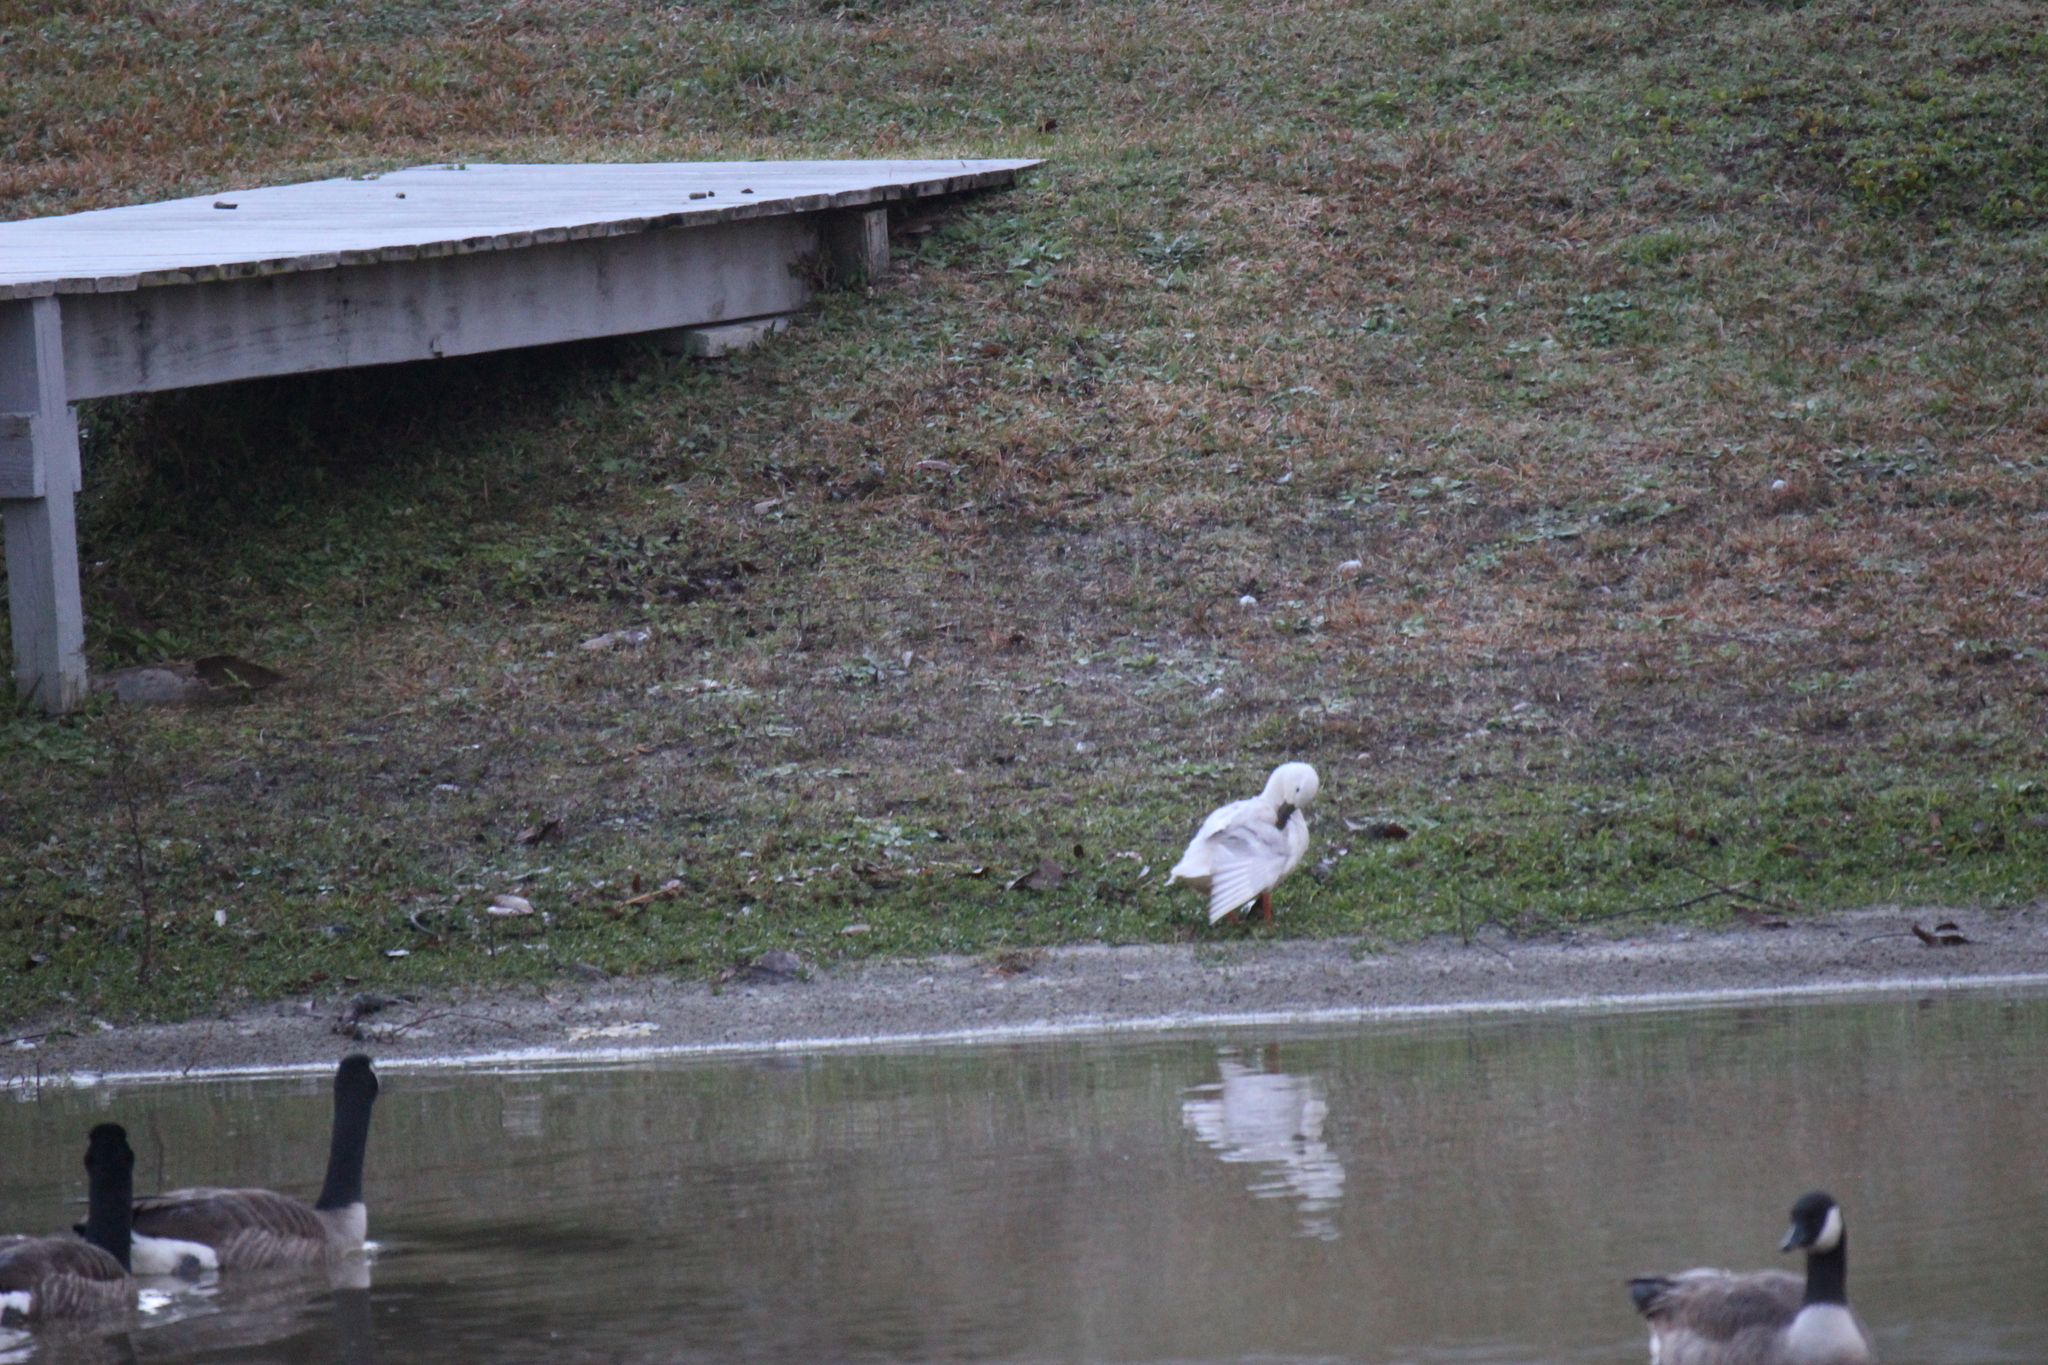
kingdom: Animalia
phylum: Chordata
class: Aves
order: Anseriformes
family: Anatidae
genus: Anas
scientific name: Anas platyrhynchos
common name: Mallard
